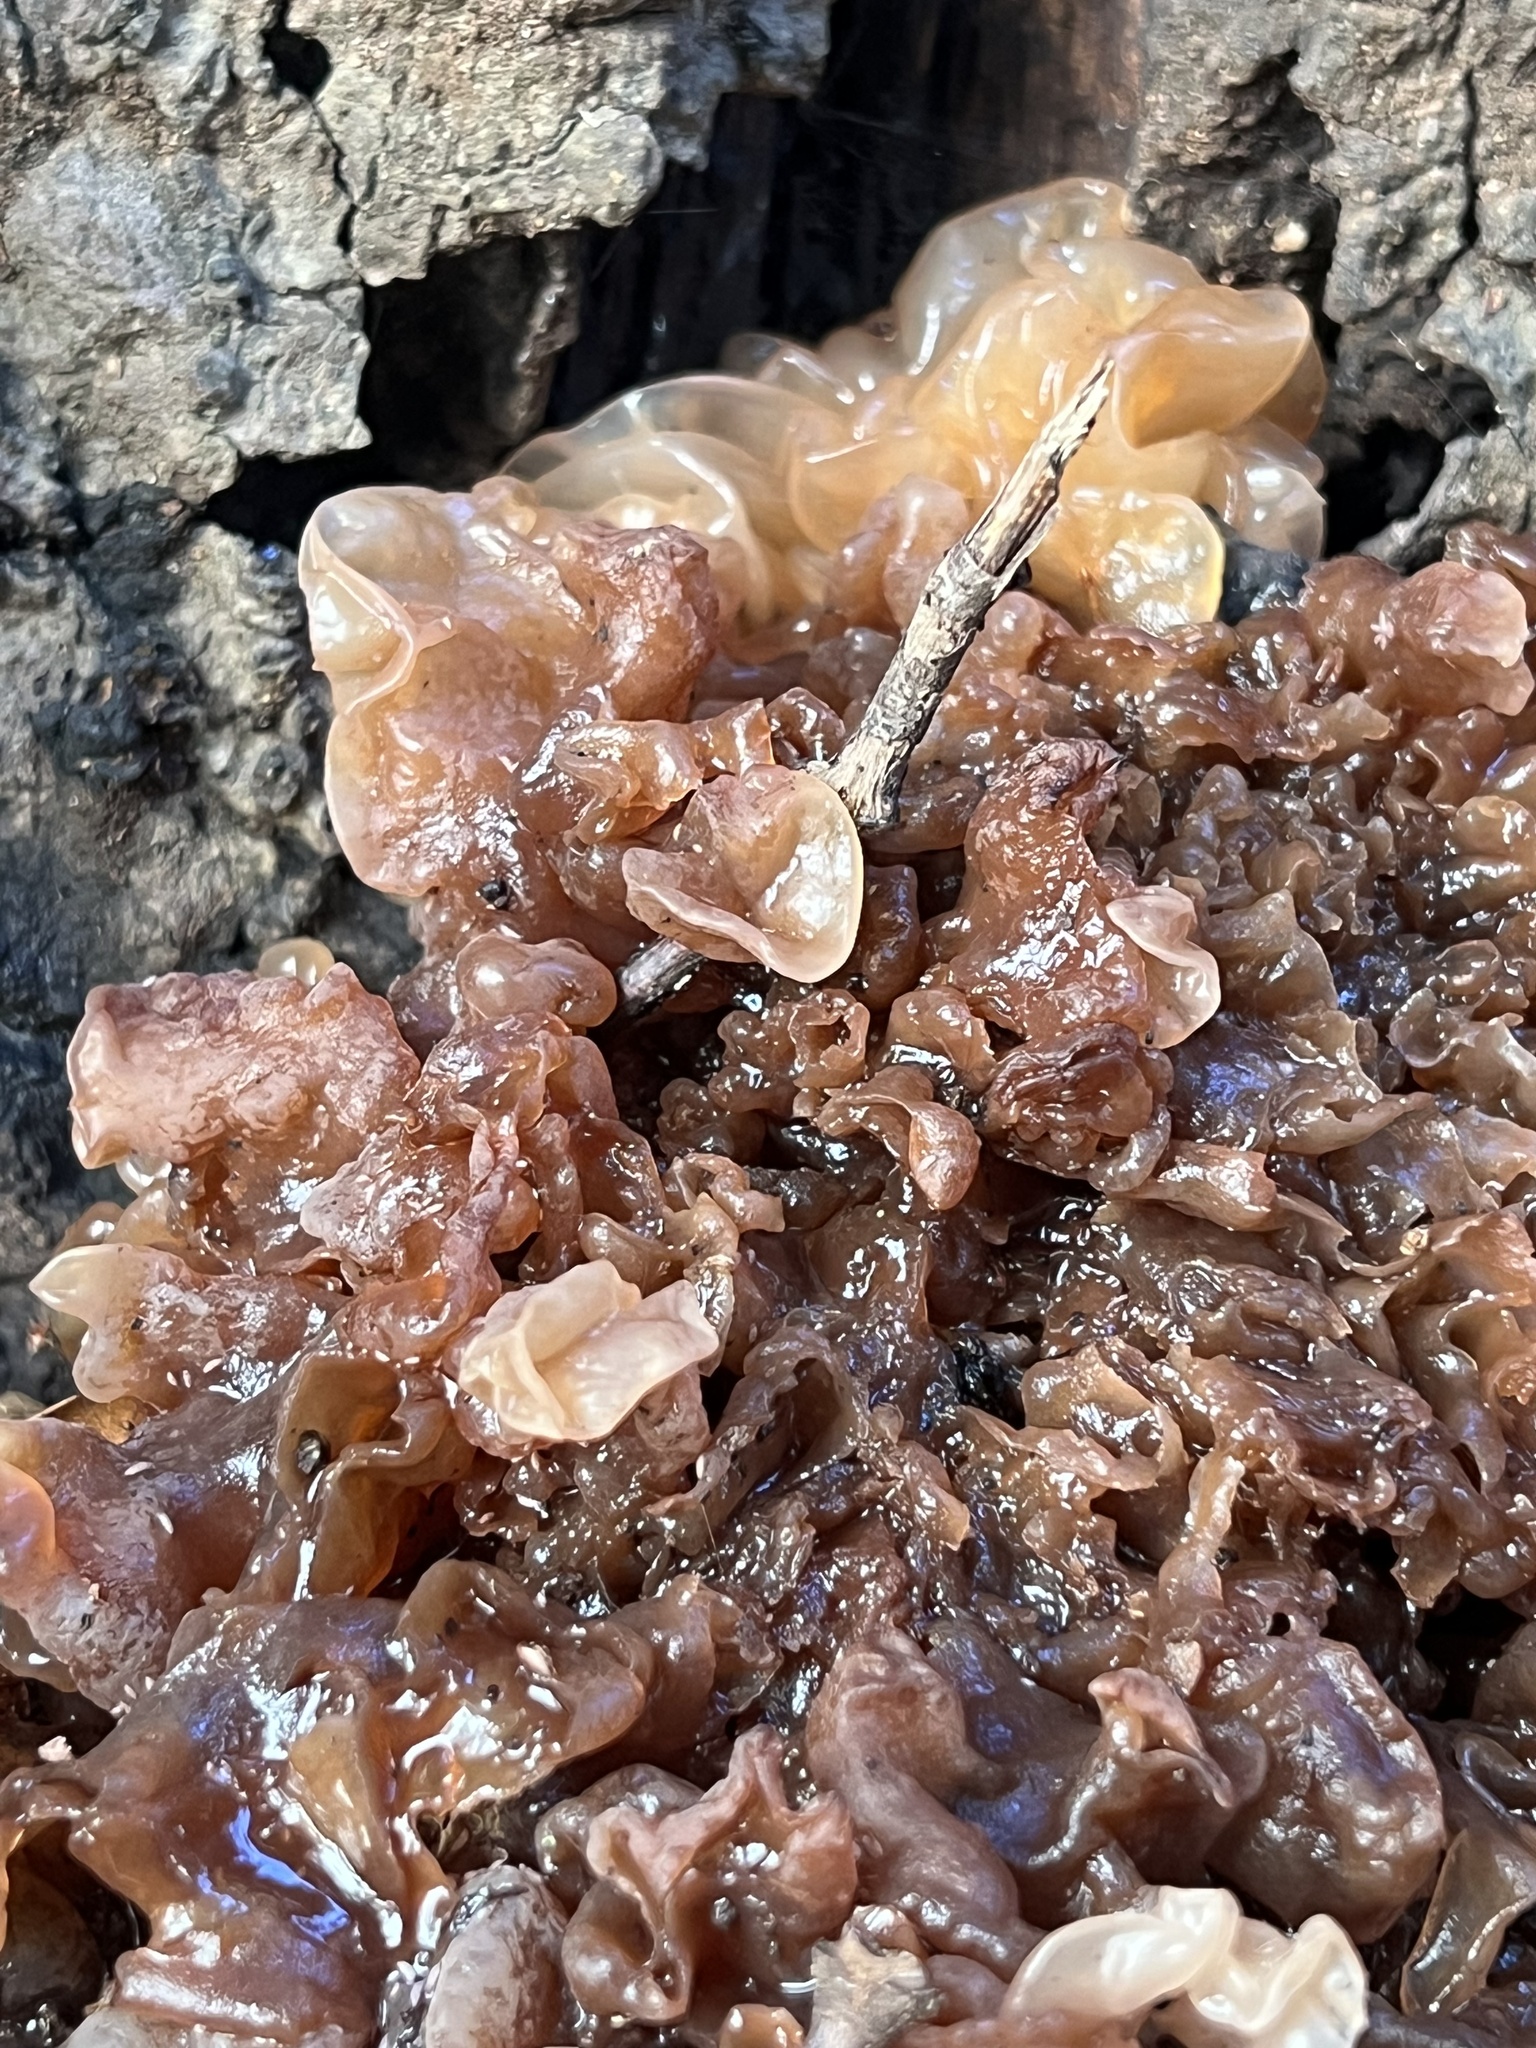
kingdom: Fungi
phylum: Basidiomycota
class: Tremellomycetes
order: Tremellales
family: Tremellaceae
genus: Phaeotremella
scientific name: Phaeotremella frondosa
